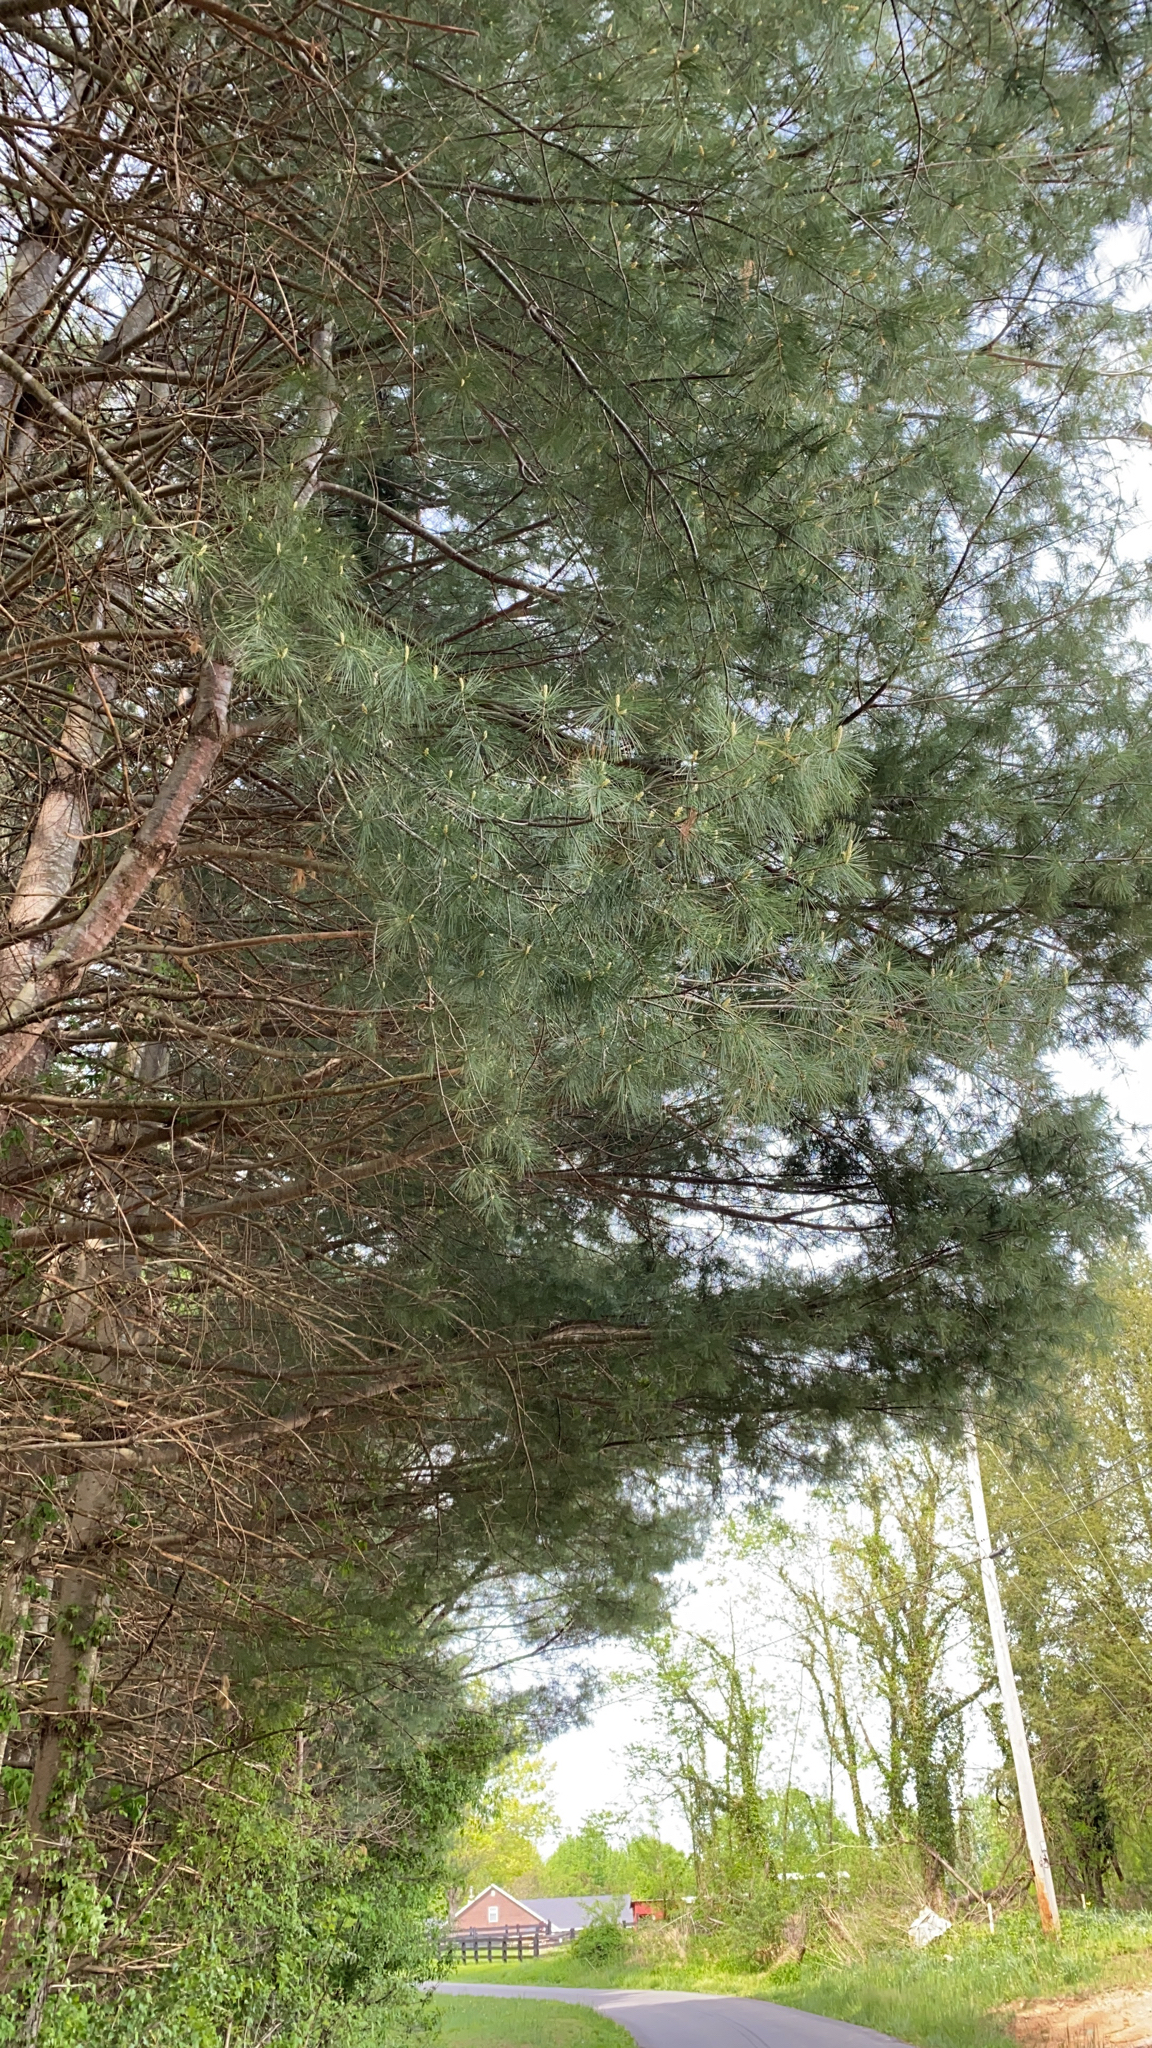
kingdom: Plantae
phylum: Tracheophyta
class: Pinopsida
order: Pinales
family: Pinaceae
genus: Pinus
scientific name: Pinus strobus
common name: Weymouth pine
